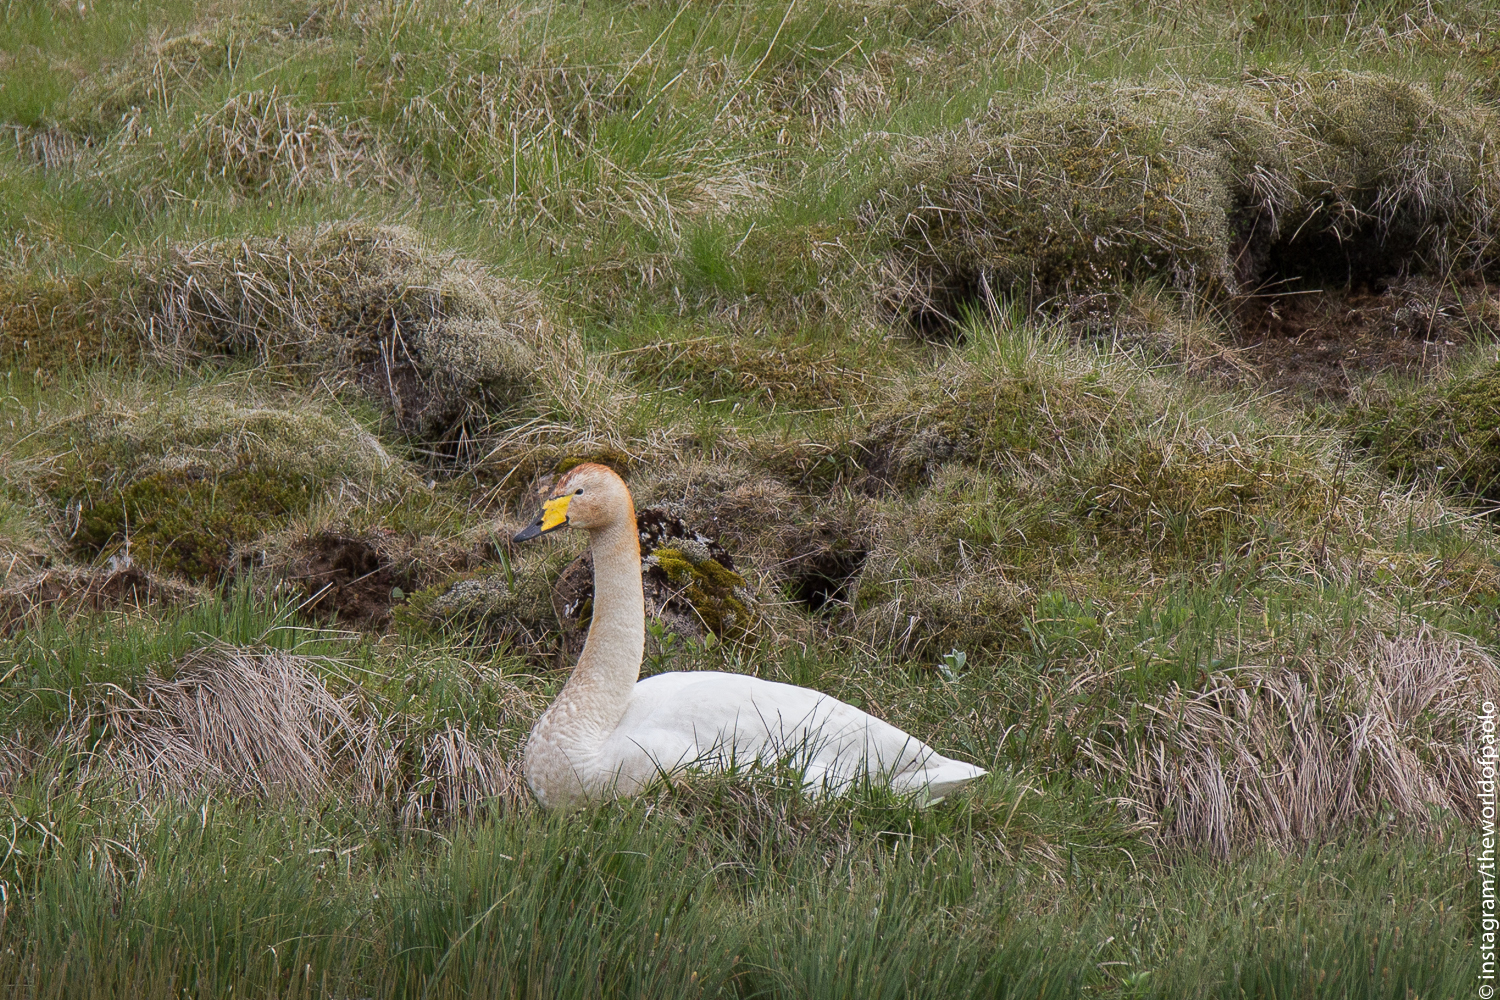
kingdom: Animalia
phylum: Chordata
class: Aves
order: Anseriformes
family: Anatidae
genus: Cygnus
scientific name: Cygnus cygnus
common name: Whooper swan
